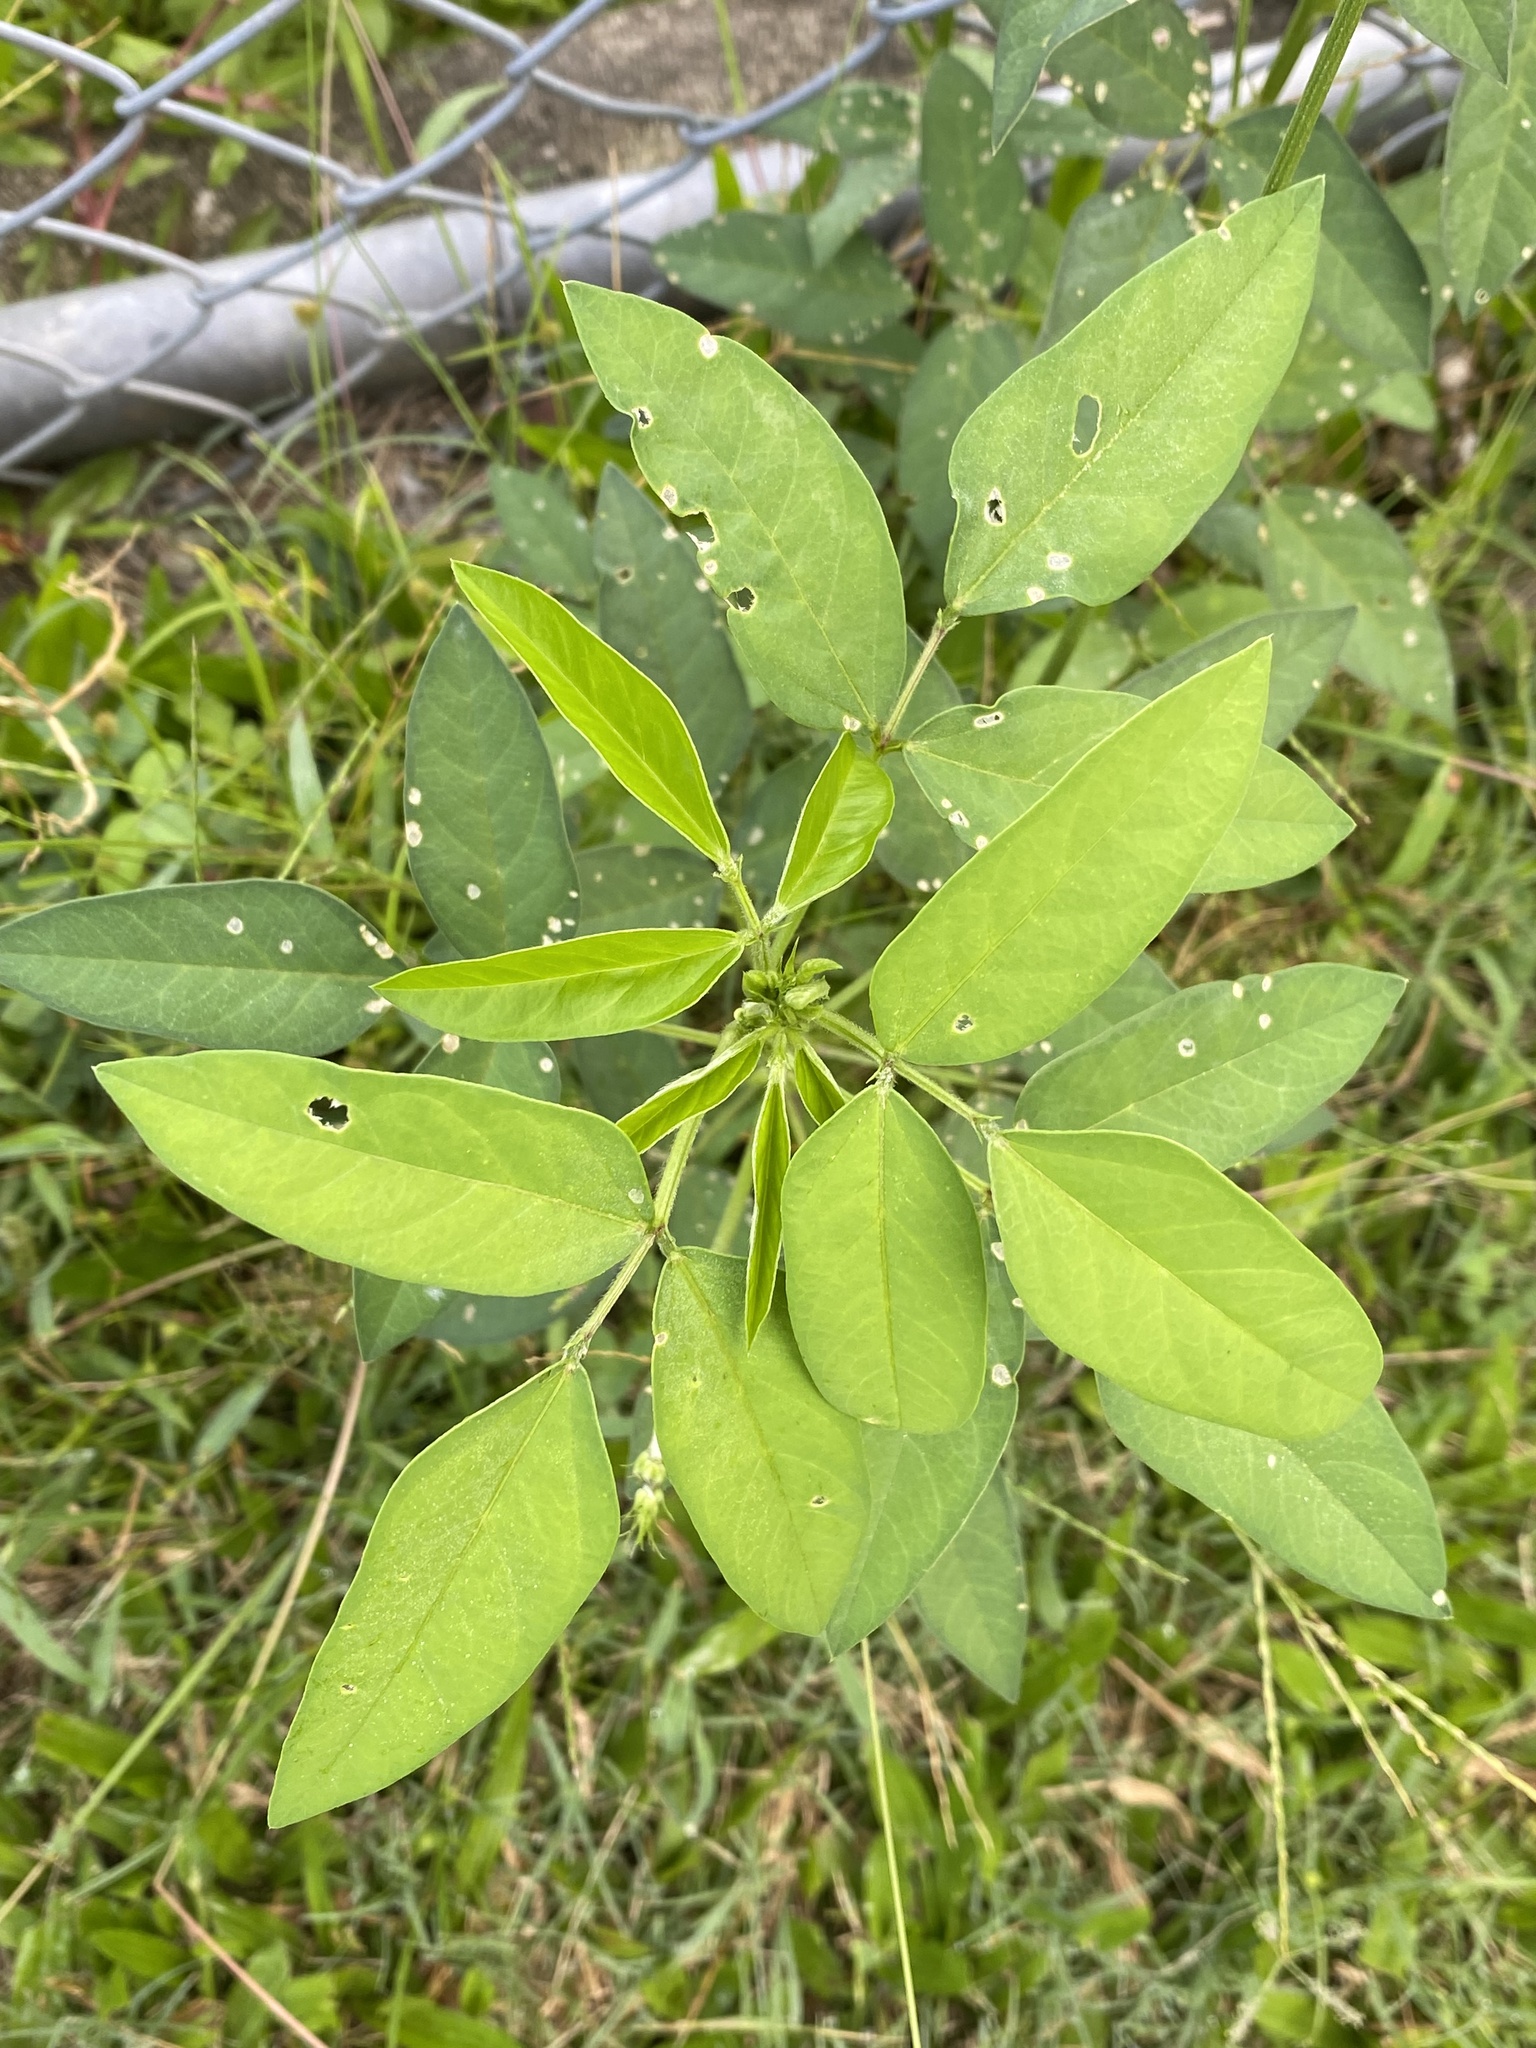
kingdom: Plantae
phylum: Tracheophyta
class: Magnoliopsida
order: Fabales
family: Fabaceae
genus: Macroptilium
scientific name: Macroptilium lathyroides
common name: Wild bushbean
